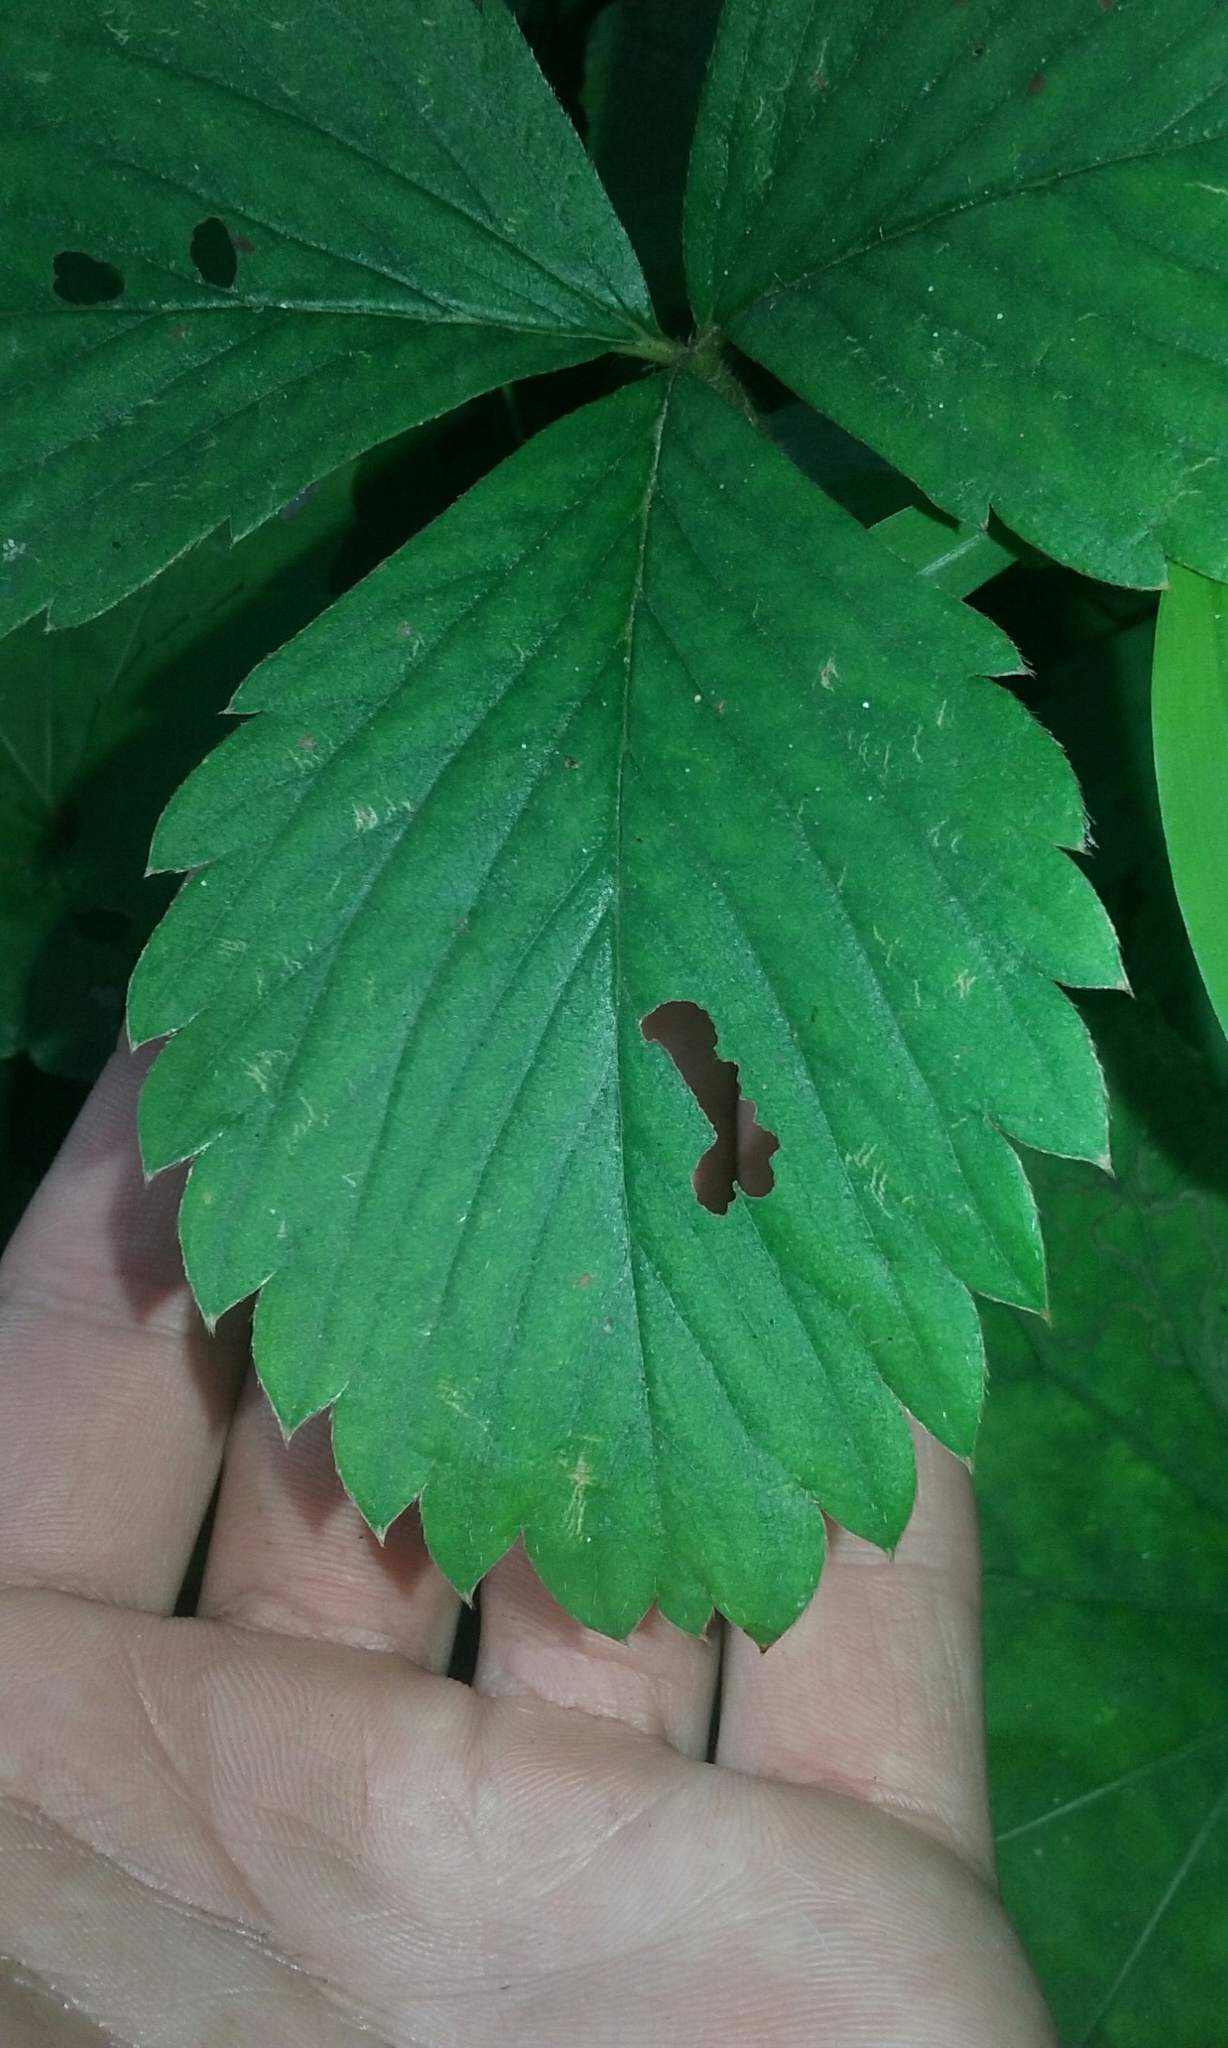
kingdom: Plantae
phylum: Tracheophyta
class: Magnoliopsida
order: Rosales
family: Rosaceae
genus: Fragaria
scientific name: Fragaria virginiana
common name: Thickleaved wild strawberry
